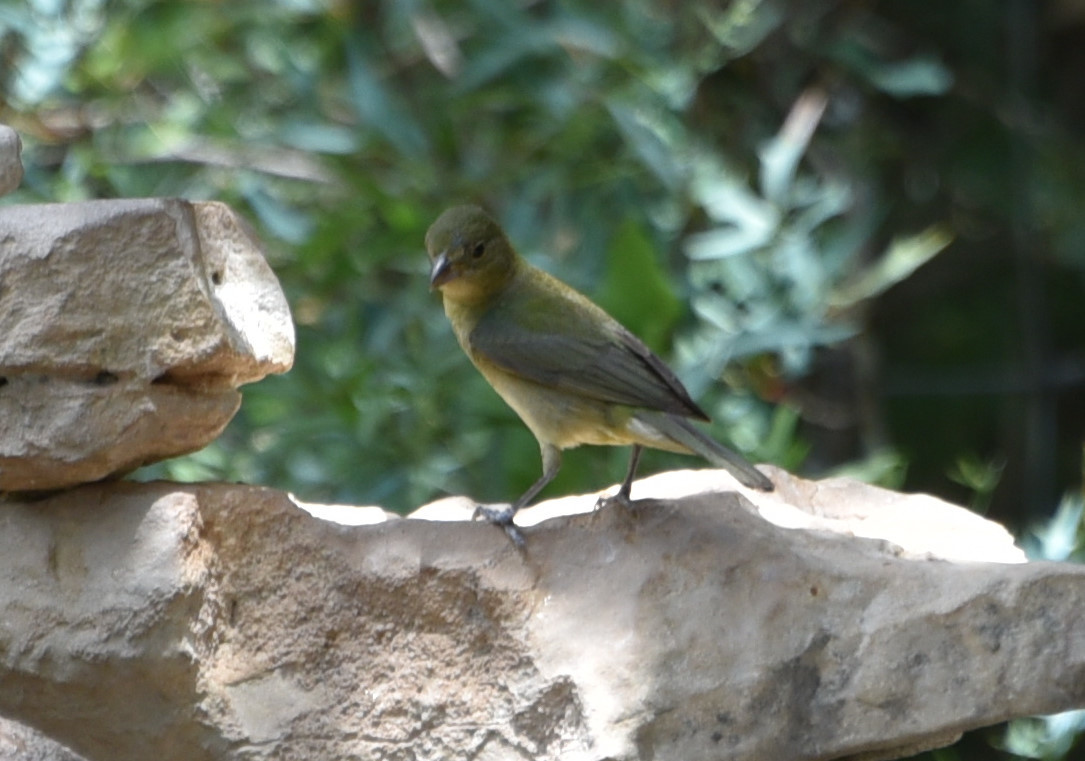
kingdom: Animalia
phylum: Chordata
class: Aves
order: Passeriformes
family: Cardinalidae
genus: Passerina
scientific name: Passerina ciris
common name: Painted bunting
